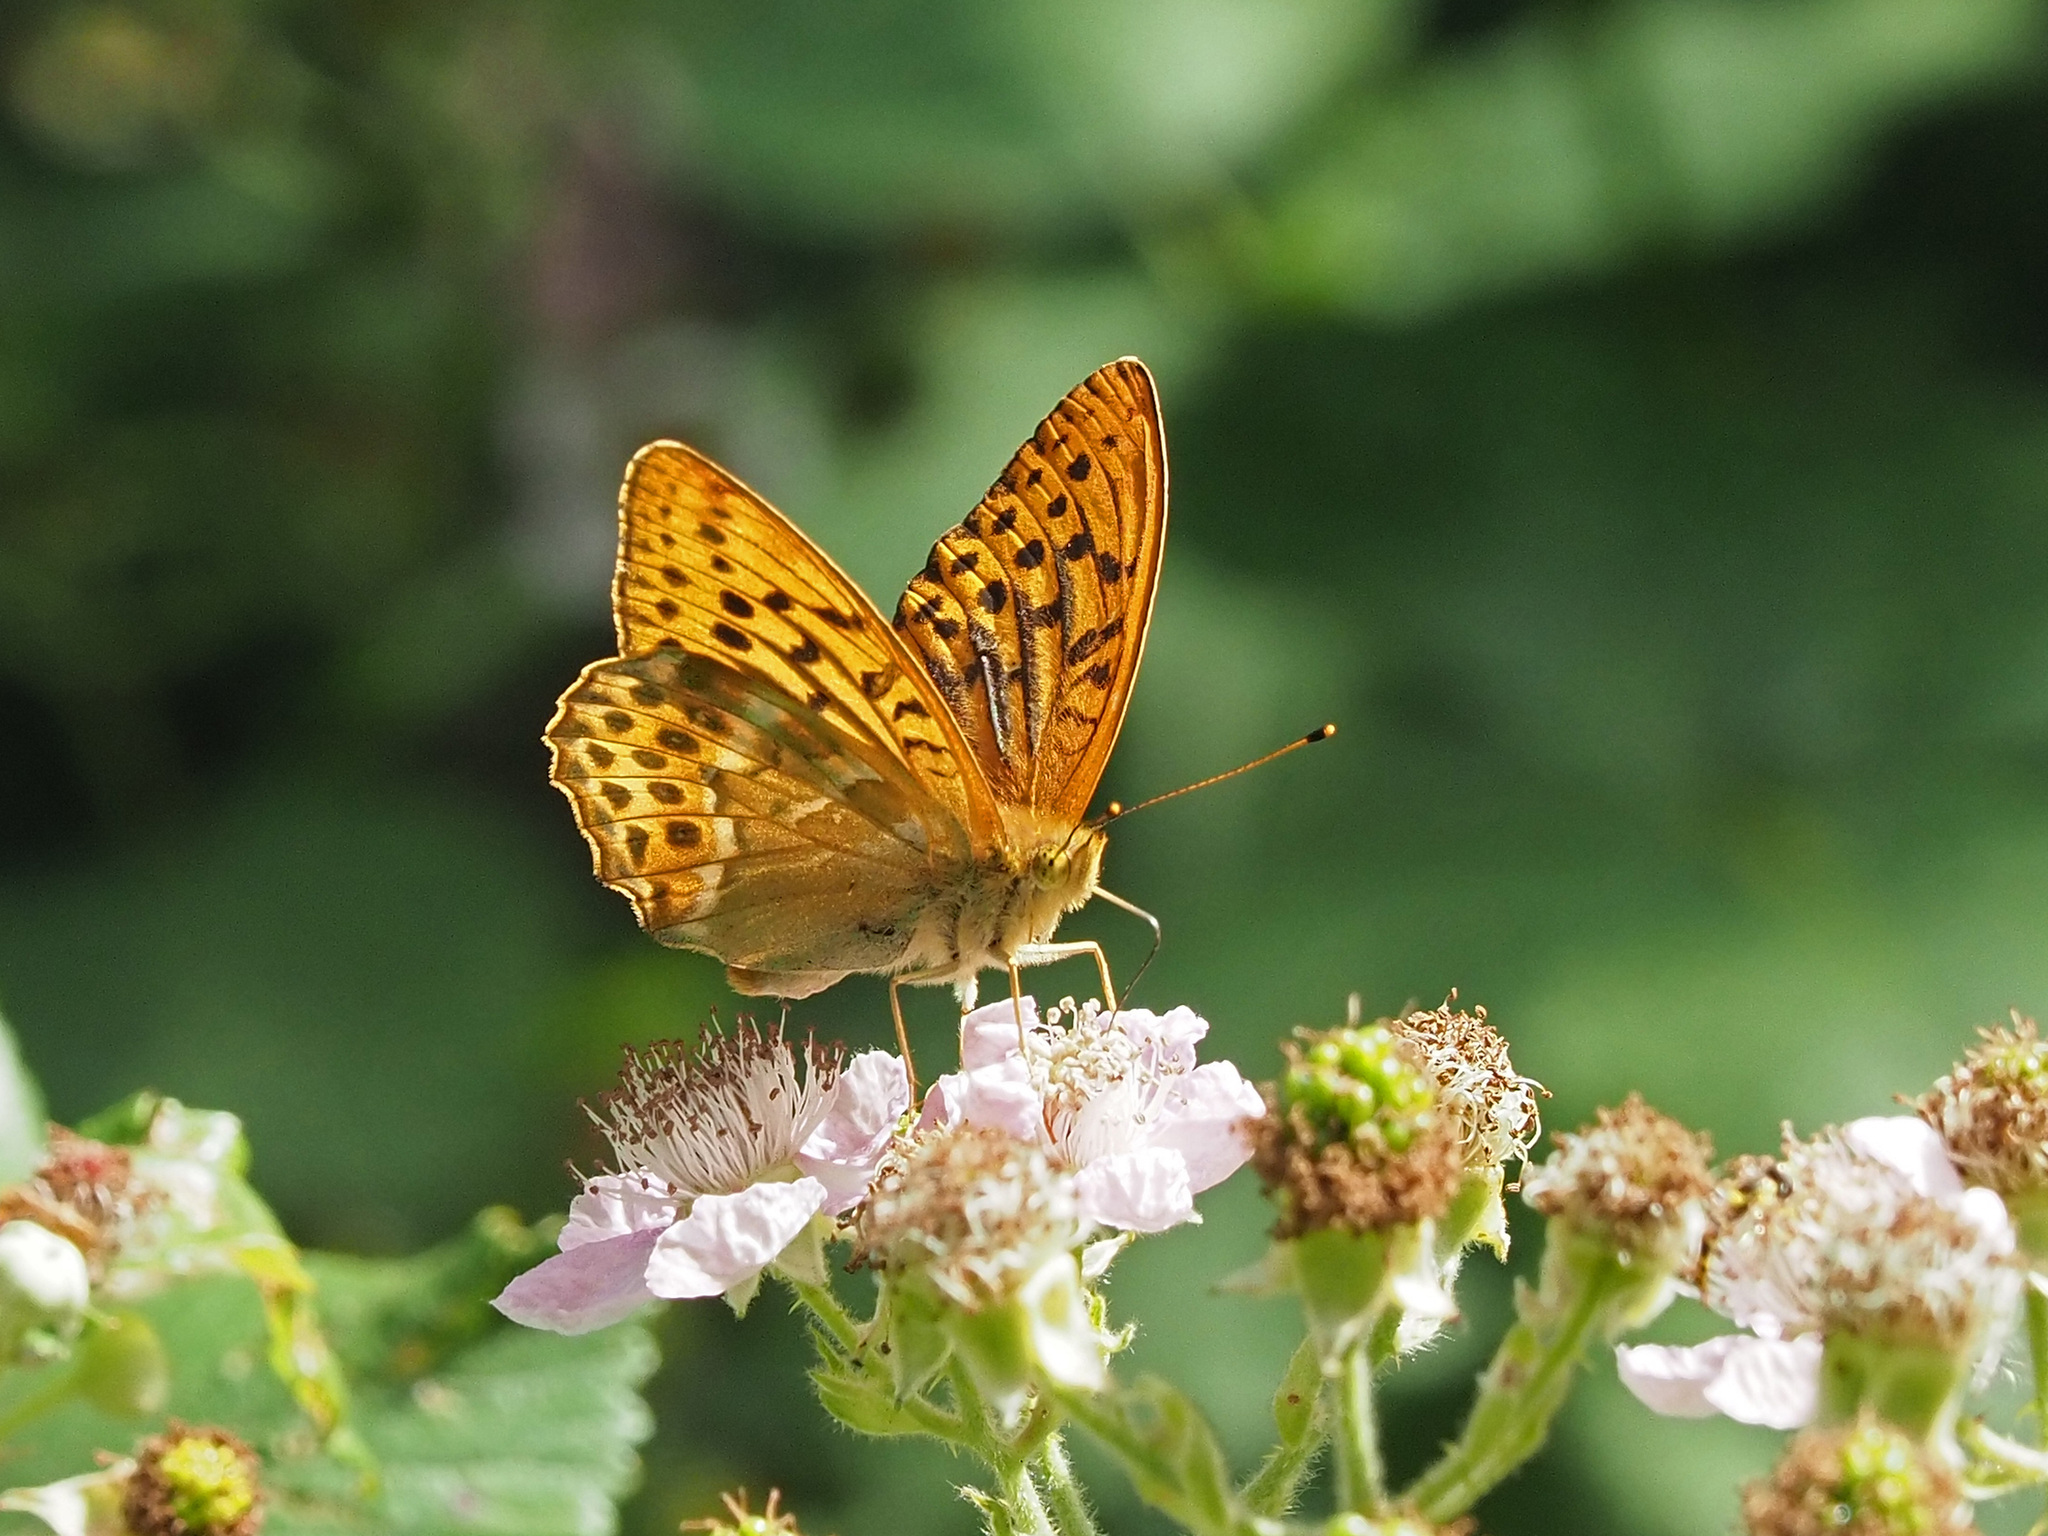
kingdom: Animalia
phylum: Arthropoda
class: Insecta
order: Lepidoptera
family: Nymphalidae
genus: Argynnis
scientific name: Argynnis paphia
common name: Silver-washed fritillary
